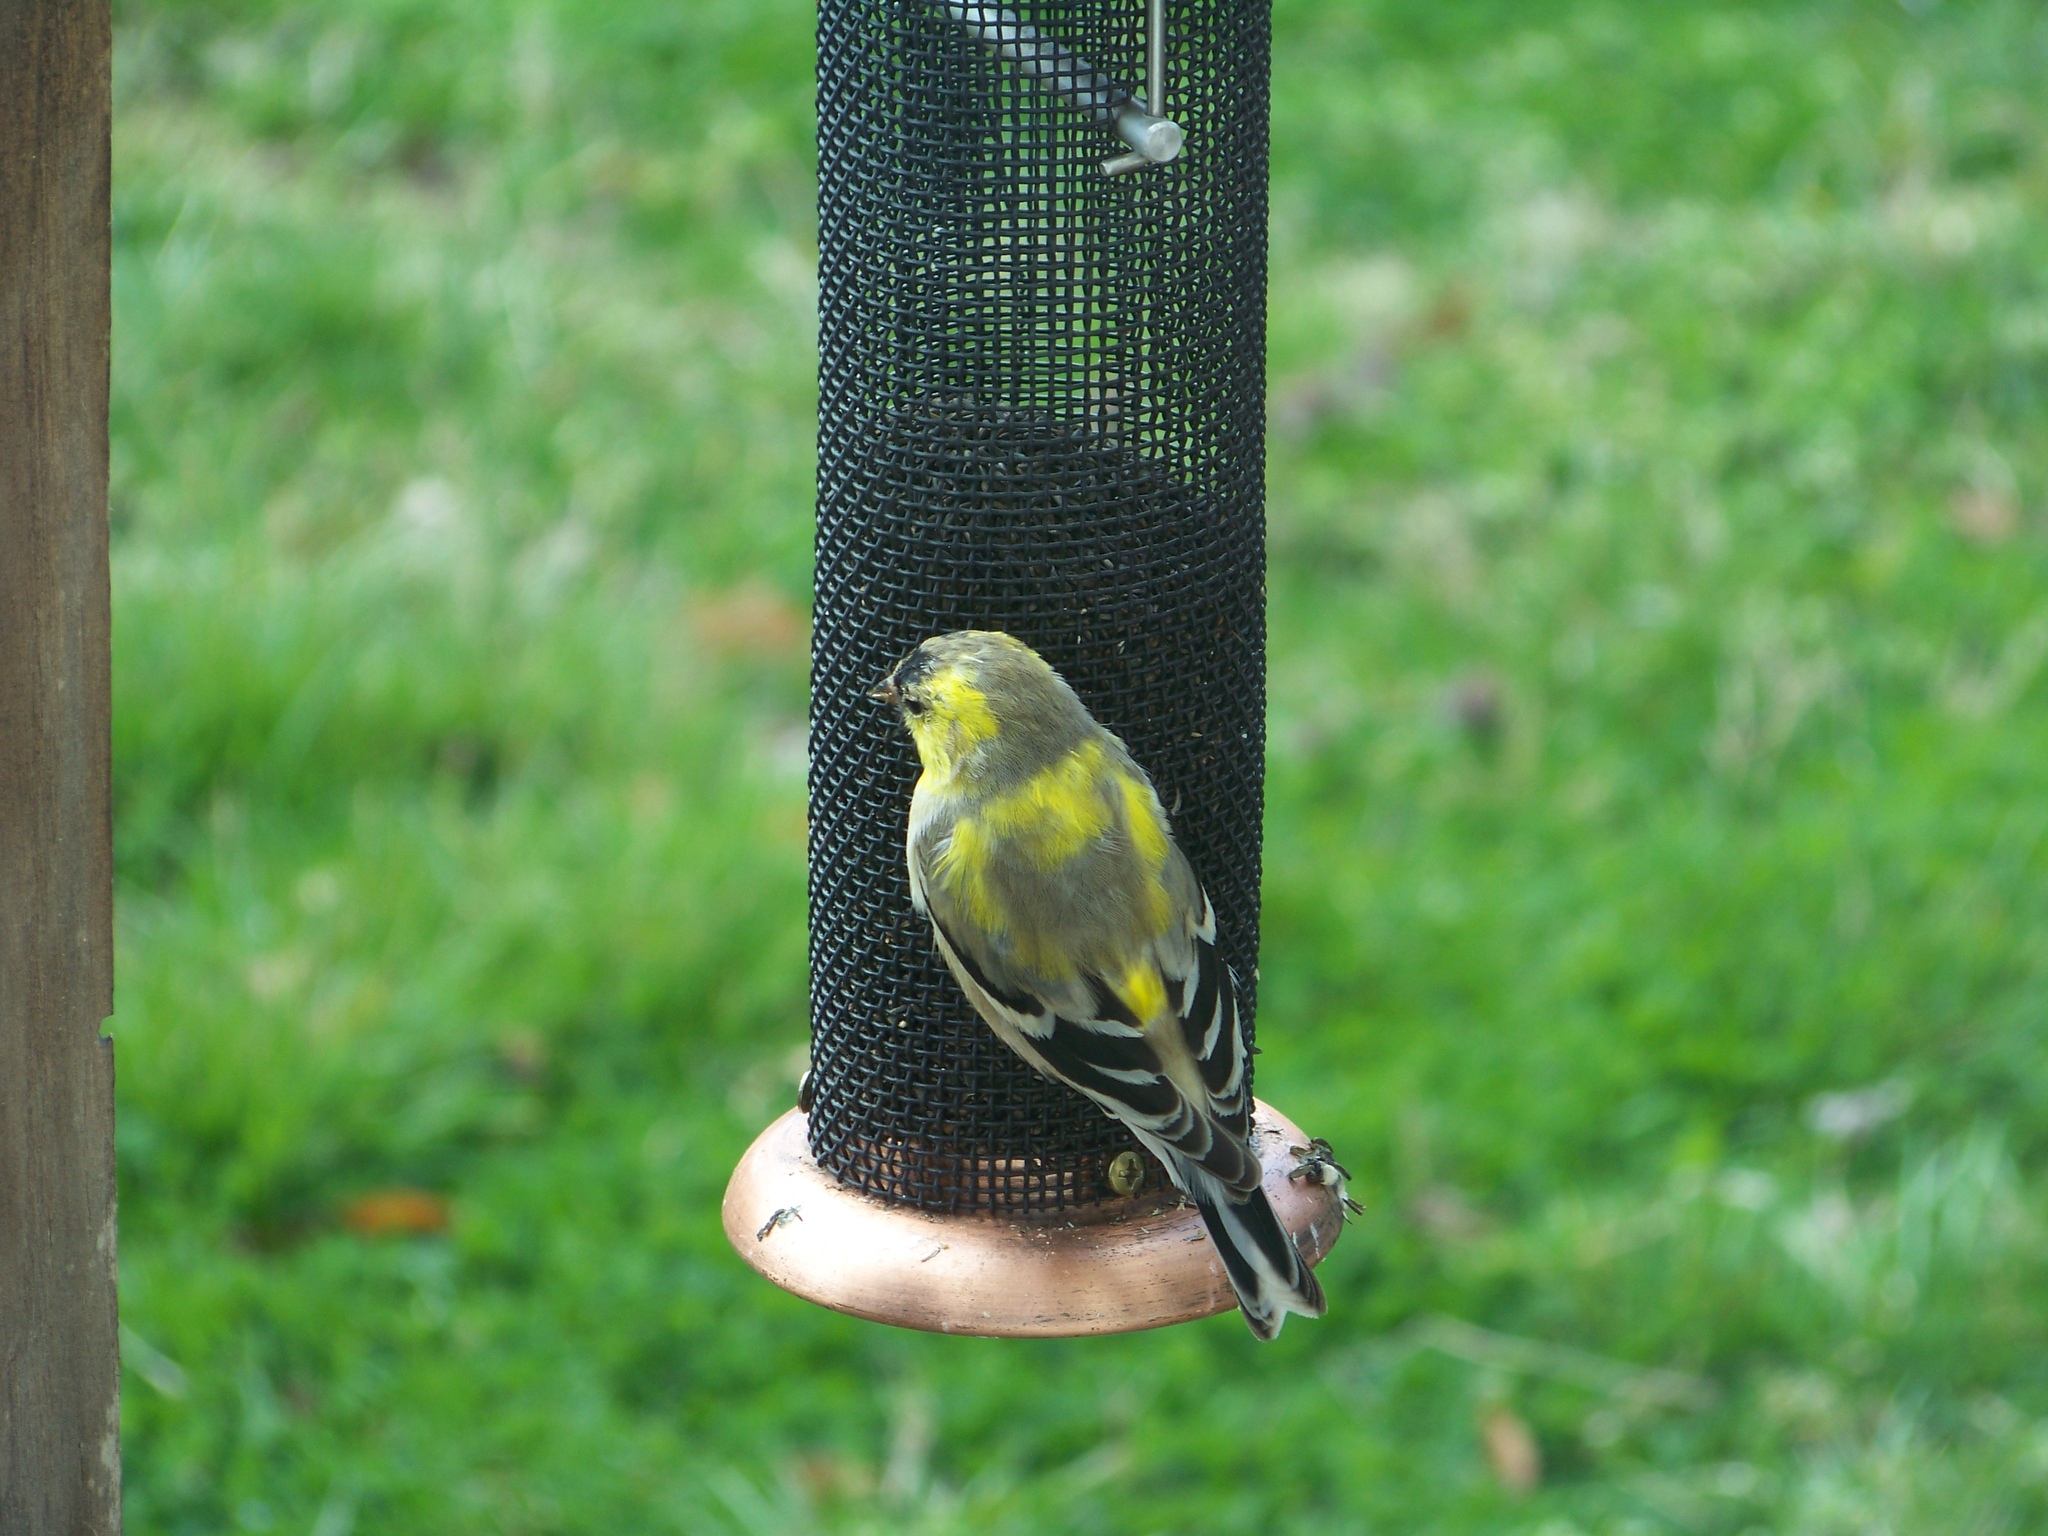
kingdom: Animalia
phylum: Chordata
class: Aves
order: Passeriformes
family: Fringillidae
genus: Spinus
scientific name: Spinus tristis
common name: American goldfinch
